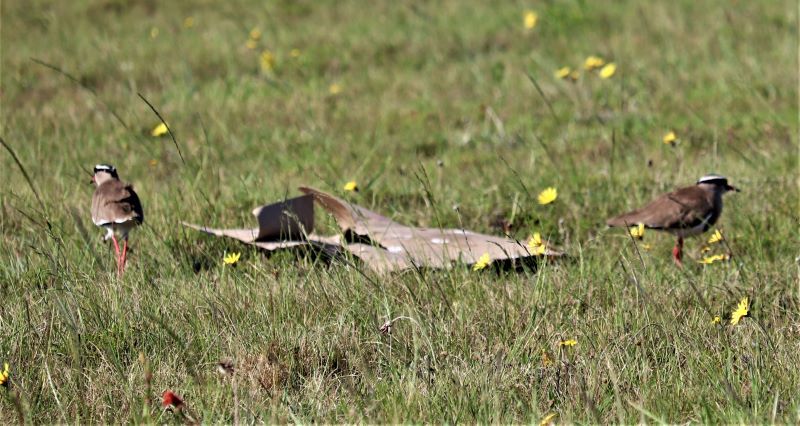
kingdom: Animalia
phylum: Chordata
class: Aves
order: Charadriiformes
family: Charadriidae
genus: Vanellus
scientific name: Vanellus coronatus
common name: Crowned lapwing
